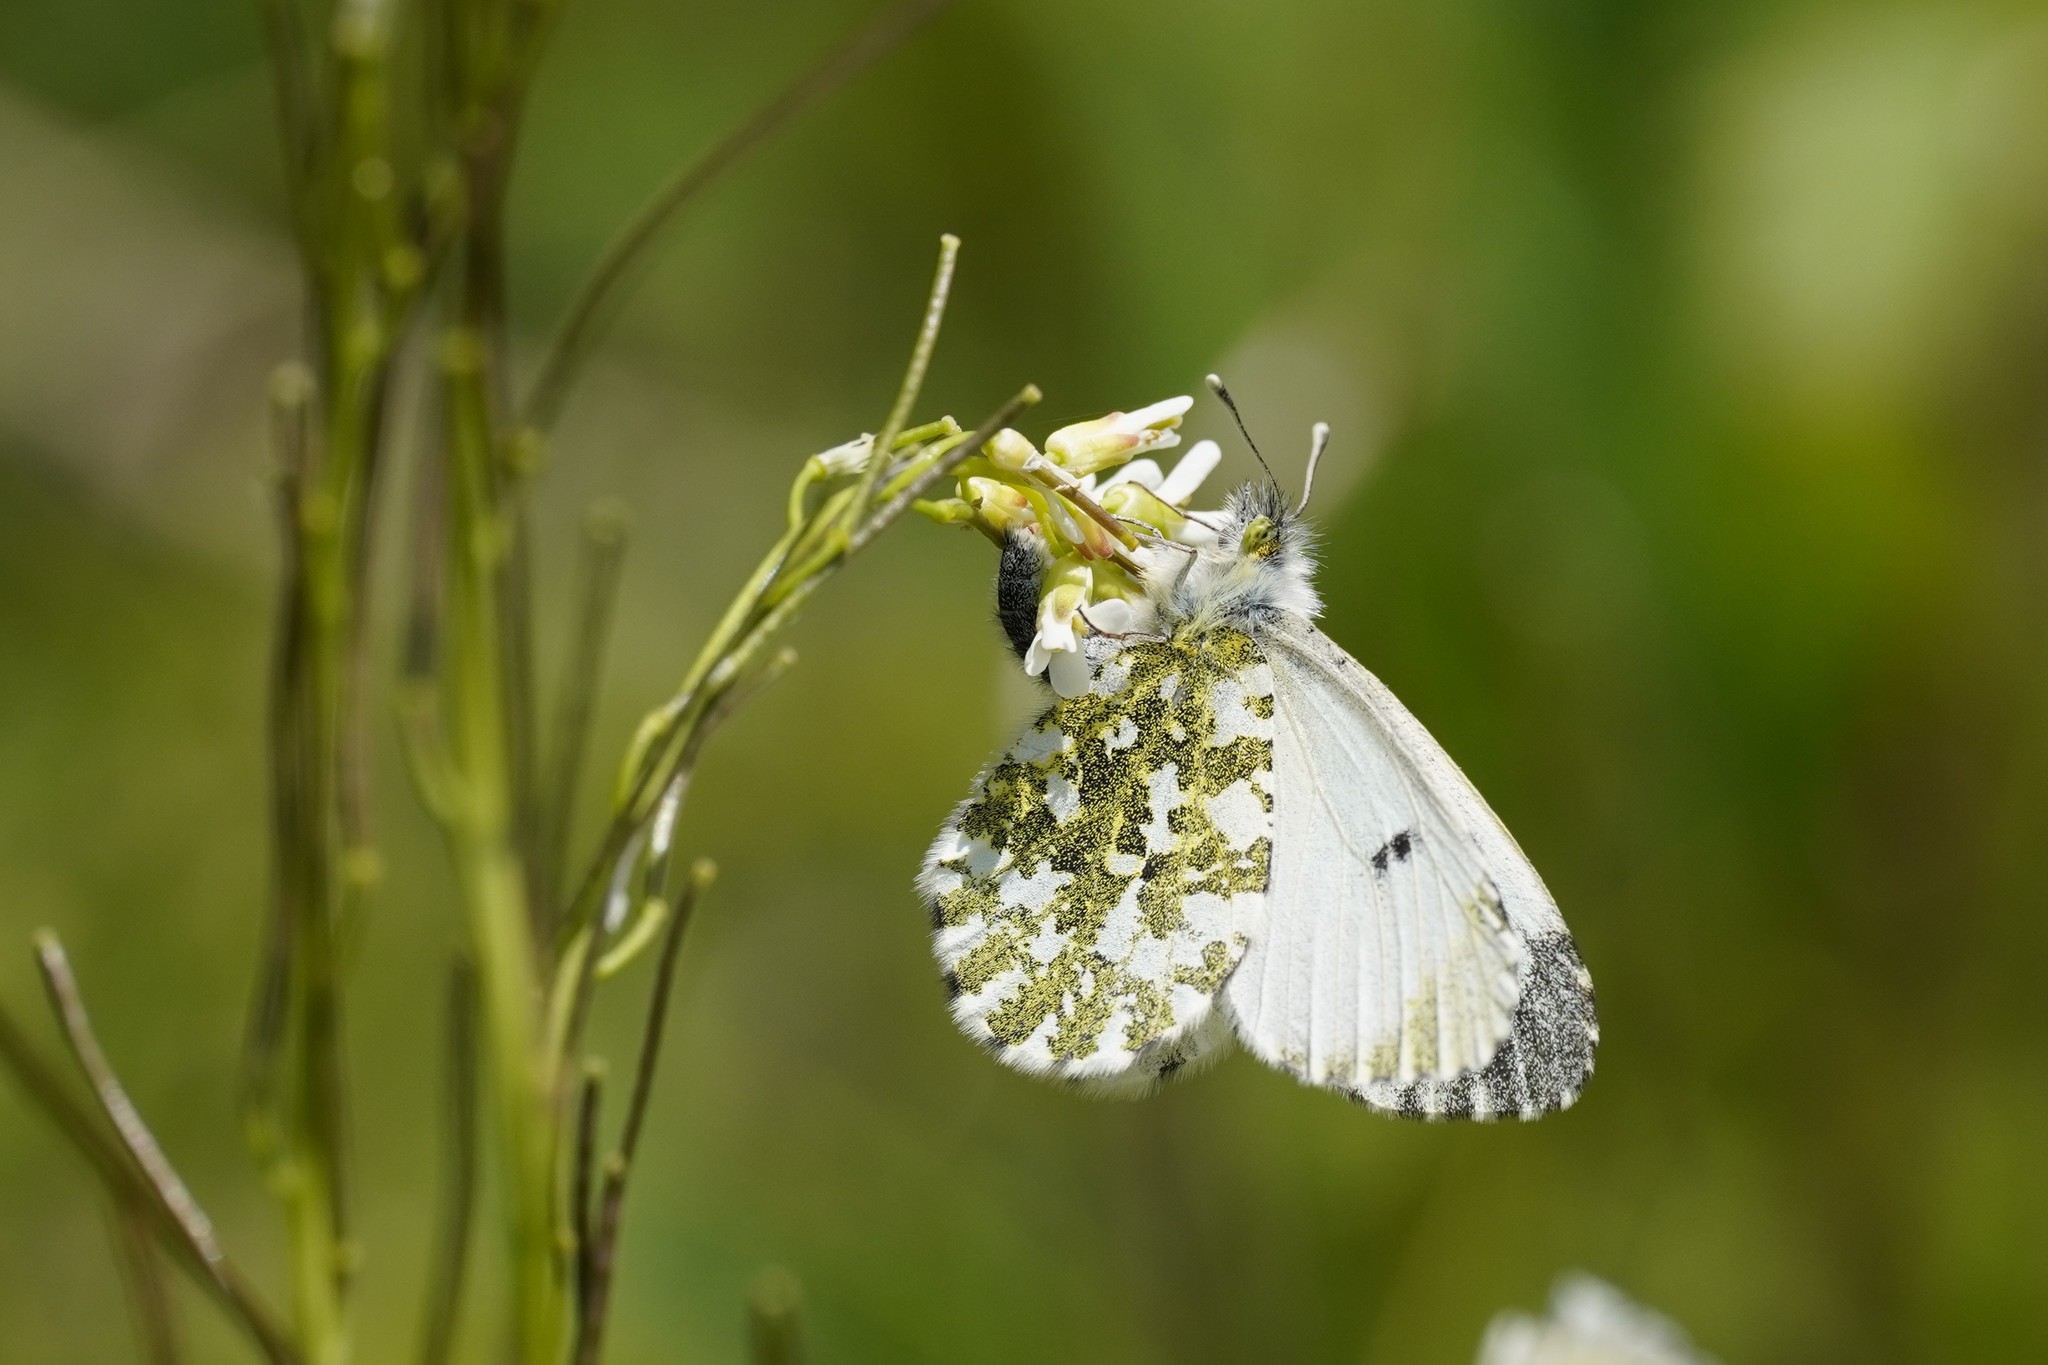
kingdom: Animalia
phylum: Arthropoda
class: Insecta
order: Lepidoptera
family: Pieridae
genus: Anthocharis
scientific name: Anthocharis cardamines
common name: Orange-tip
